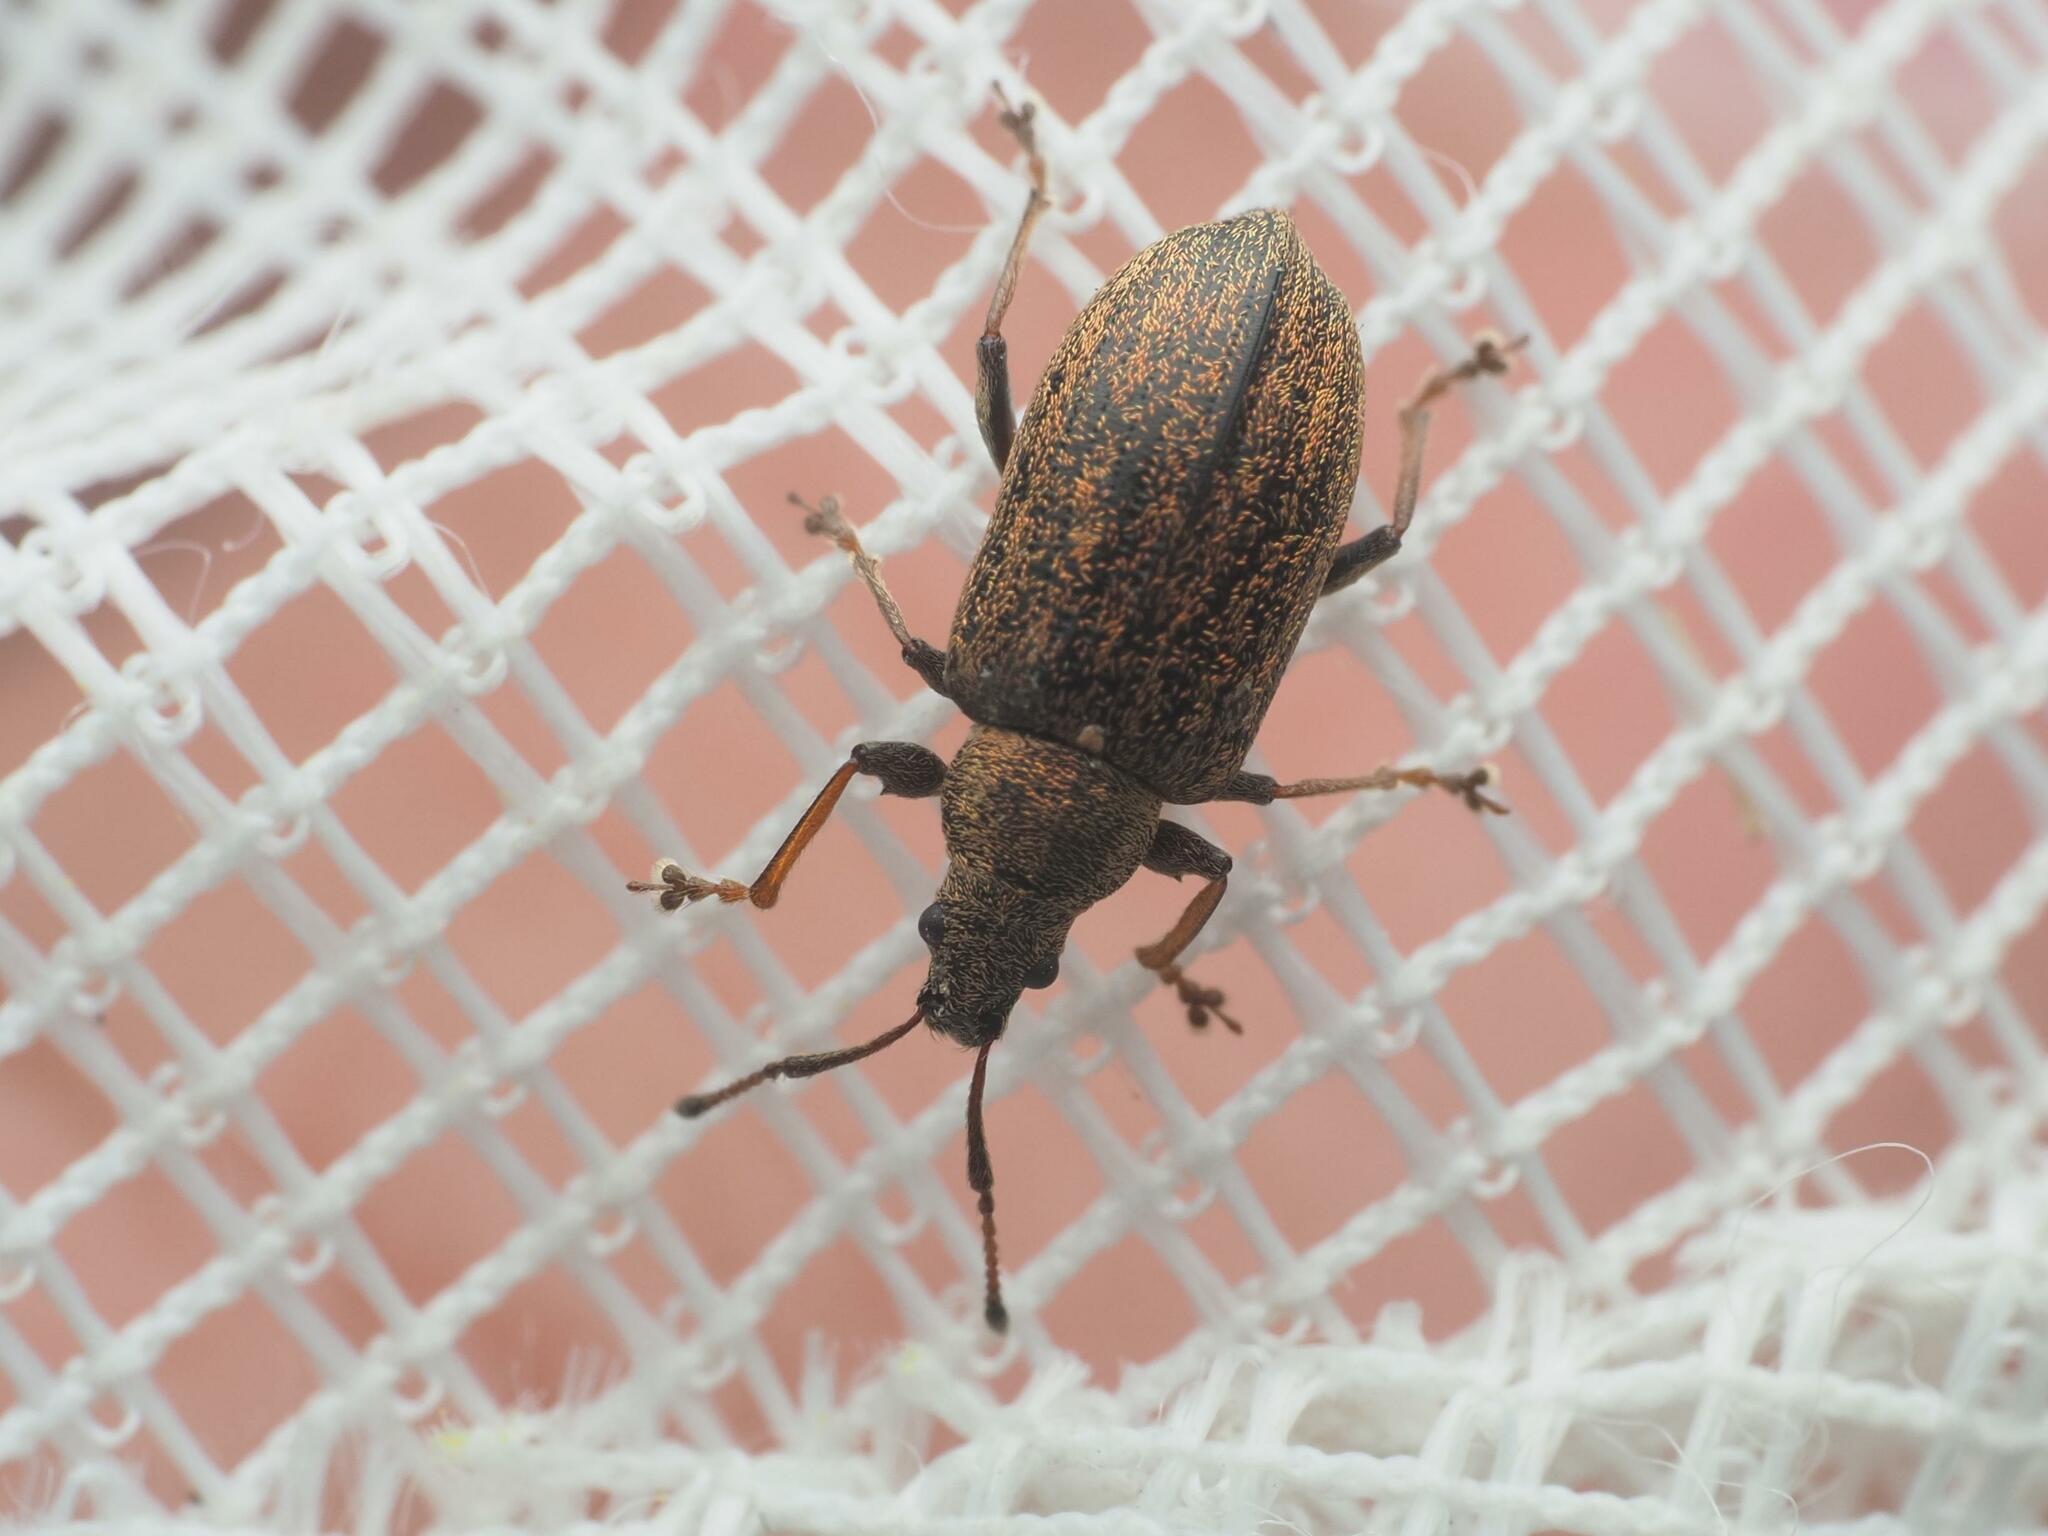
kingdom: Animalia
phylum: Arthropoda
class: Insecta
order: Coleoptera
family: Curculionidae
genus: Phyllobius
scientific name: Phyllobius pyri
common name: Common leaf weevil
